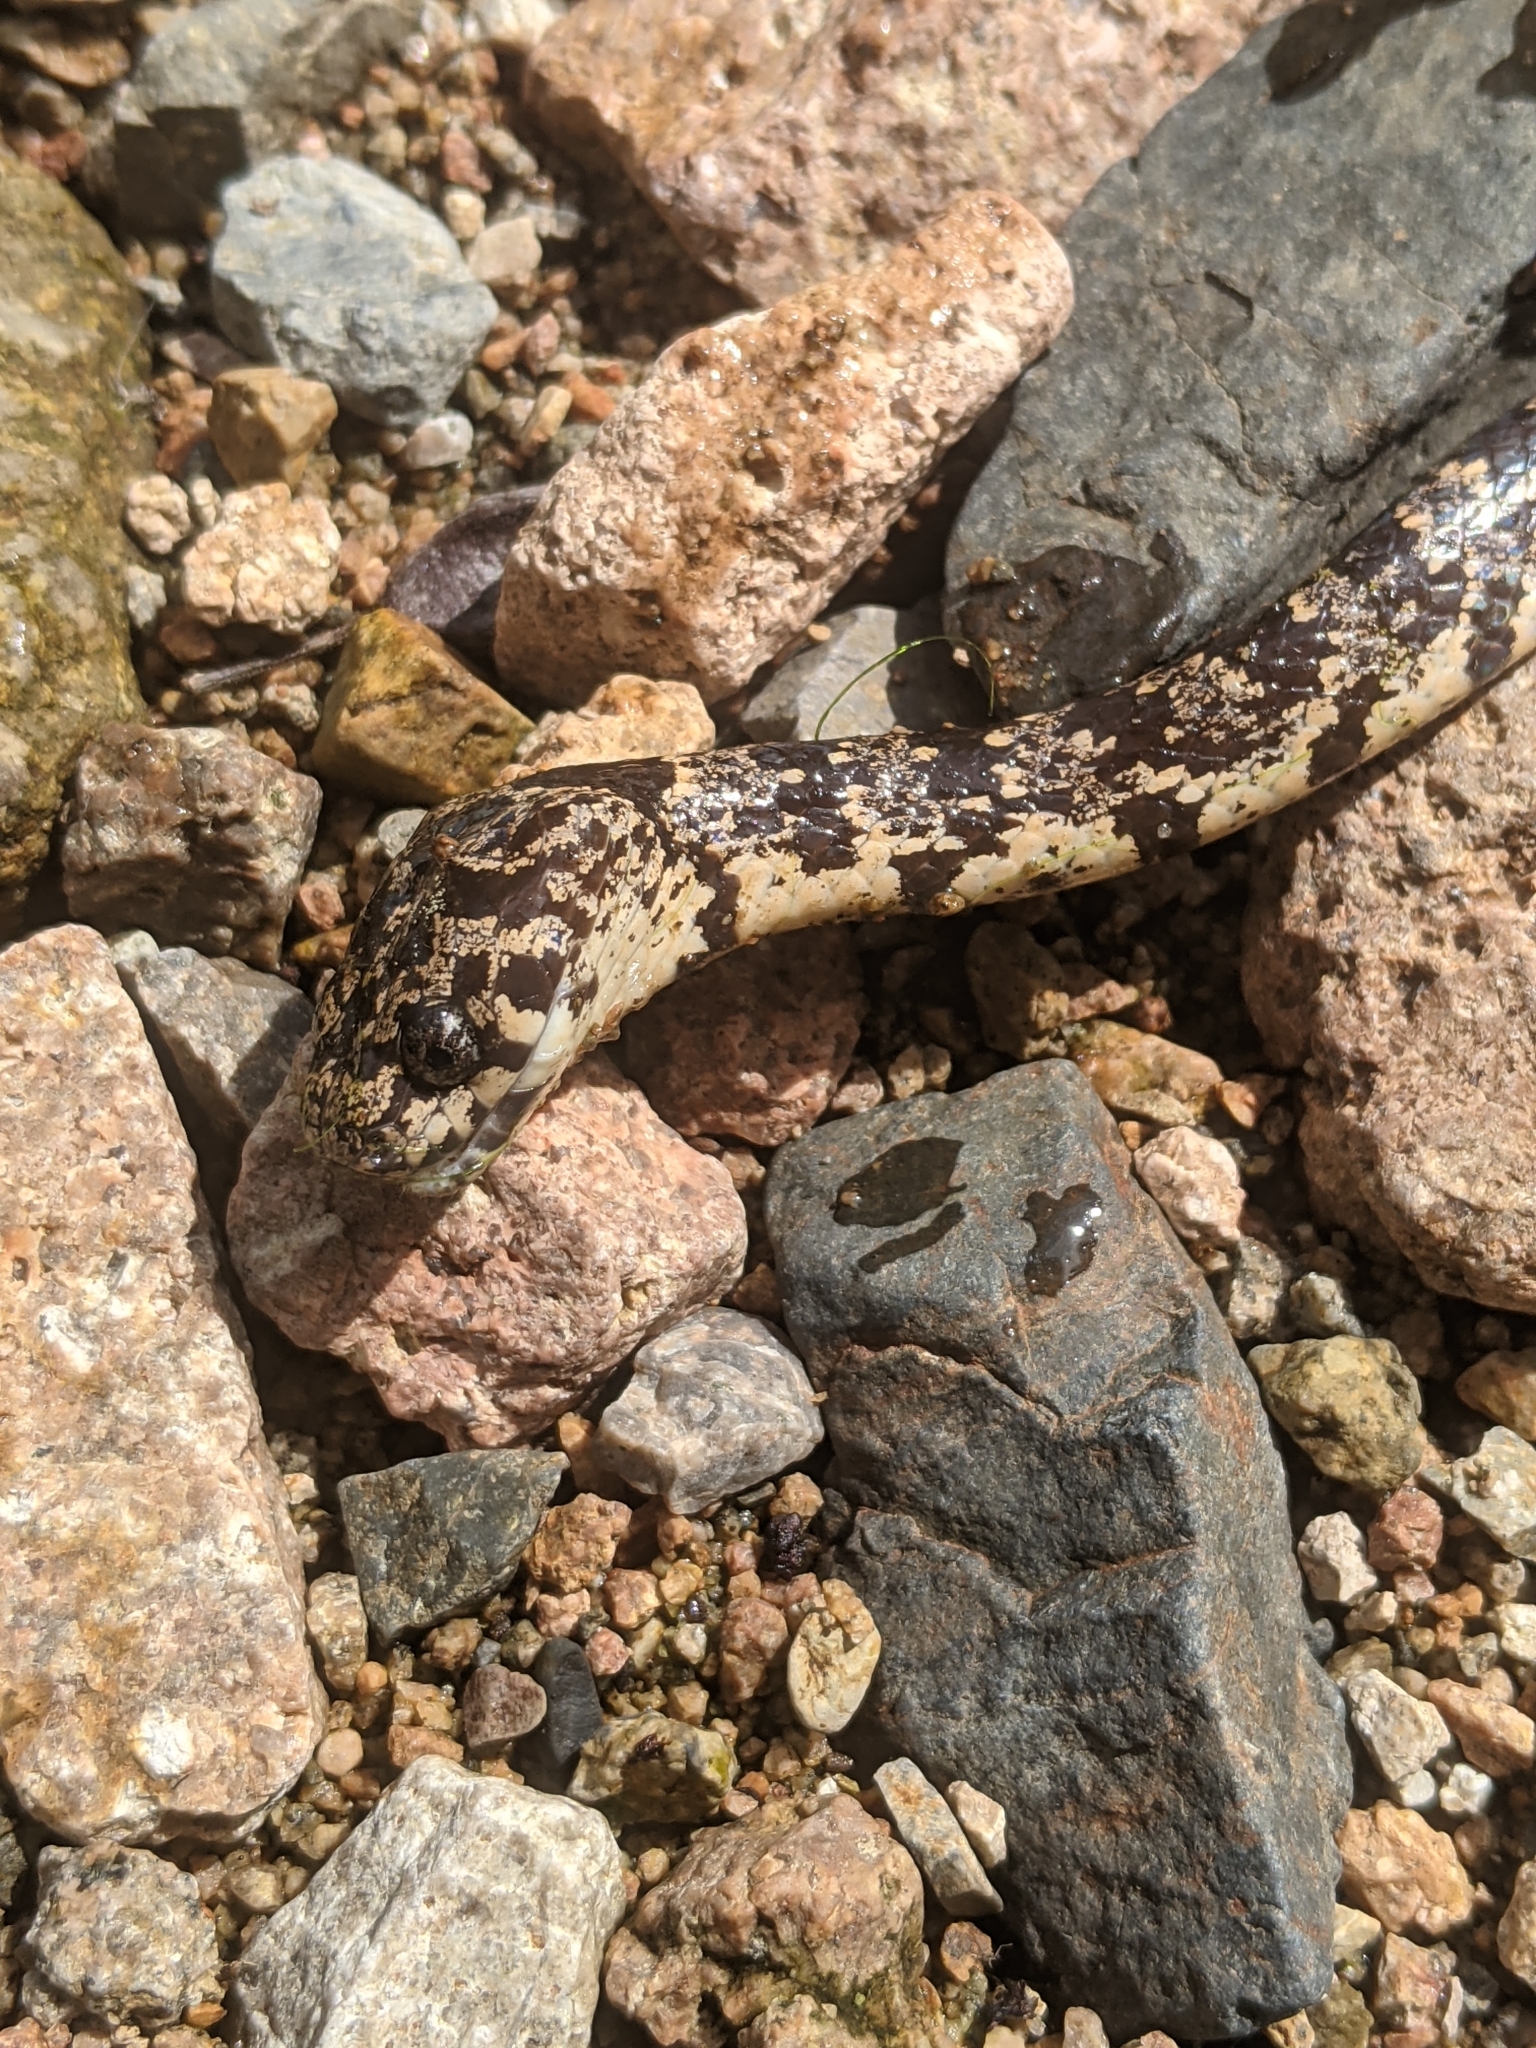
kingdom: Animalia
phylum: Chordata
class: Squamata
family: Colubridae
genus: Sibon
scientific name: Sibon nebulatus
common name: Cloudy snail-eating snake
